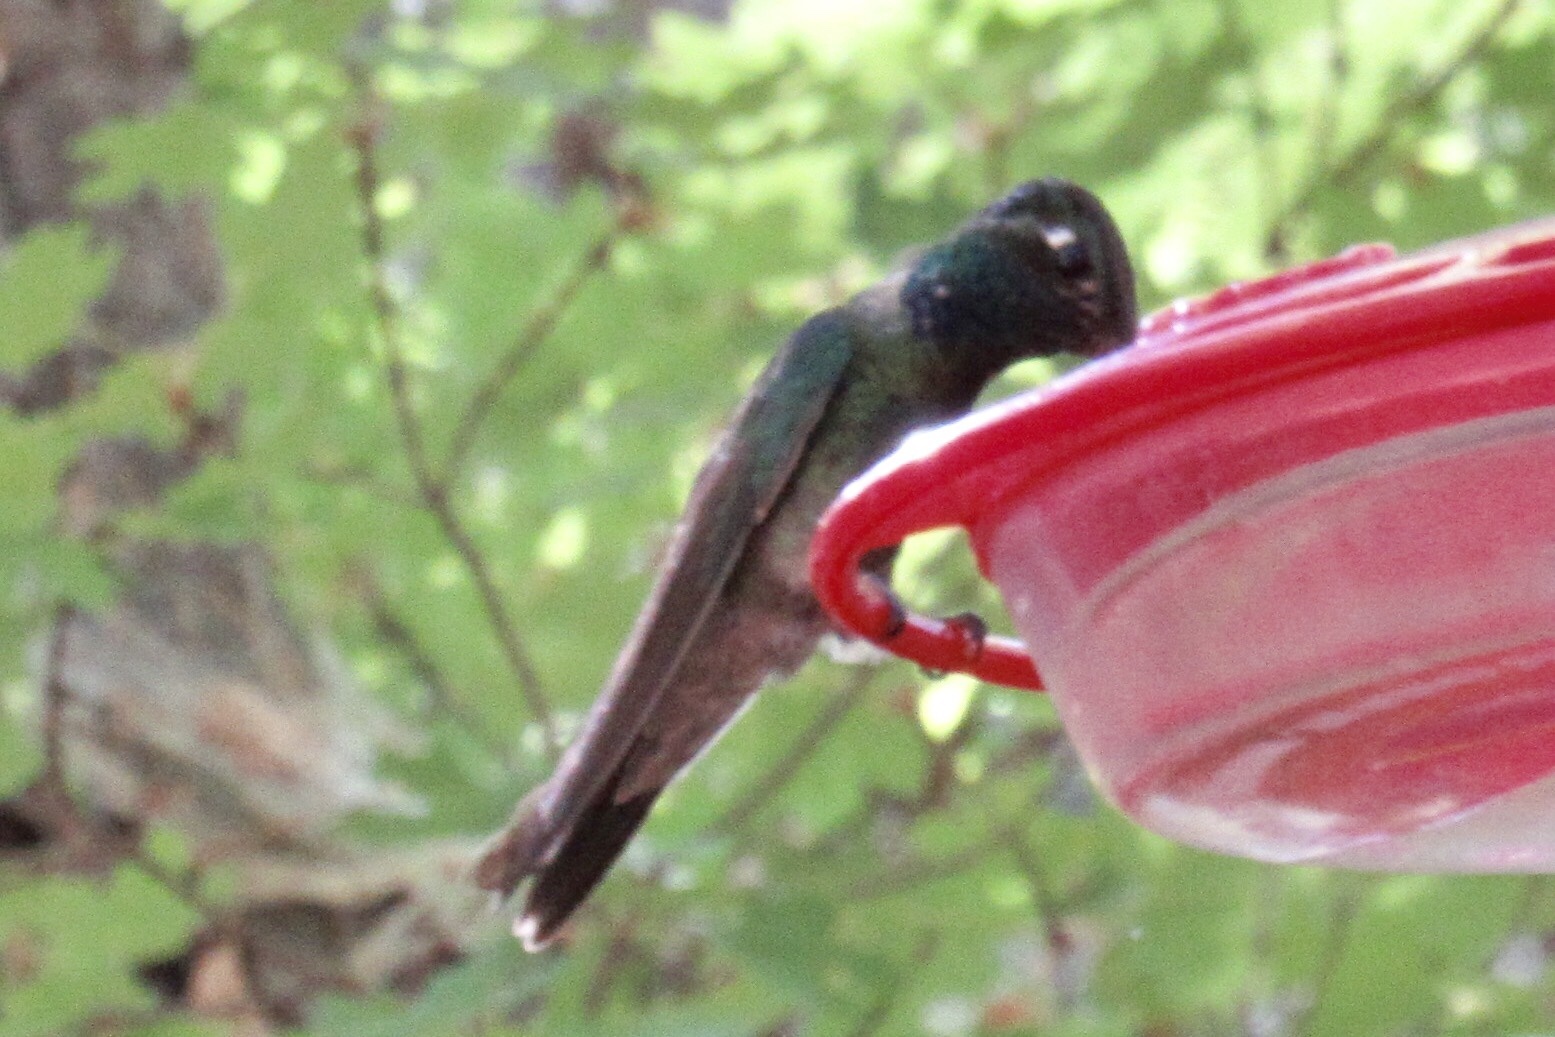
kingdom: Animalia
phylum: Chordata
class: Aves
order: Apodiformes
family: Trochilidae
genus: Eugenes
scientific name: Eugenes fulgens
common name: Magnificent hummingbird
